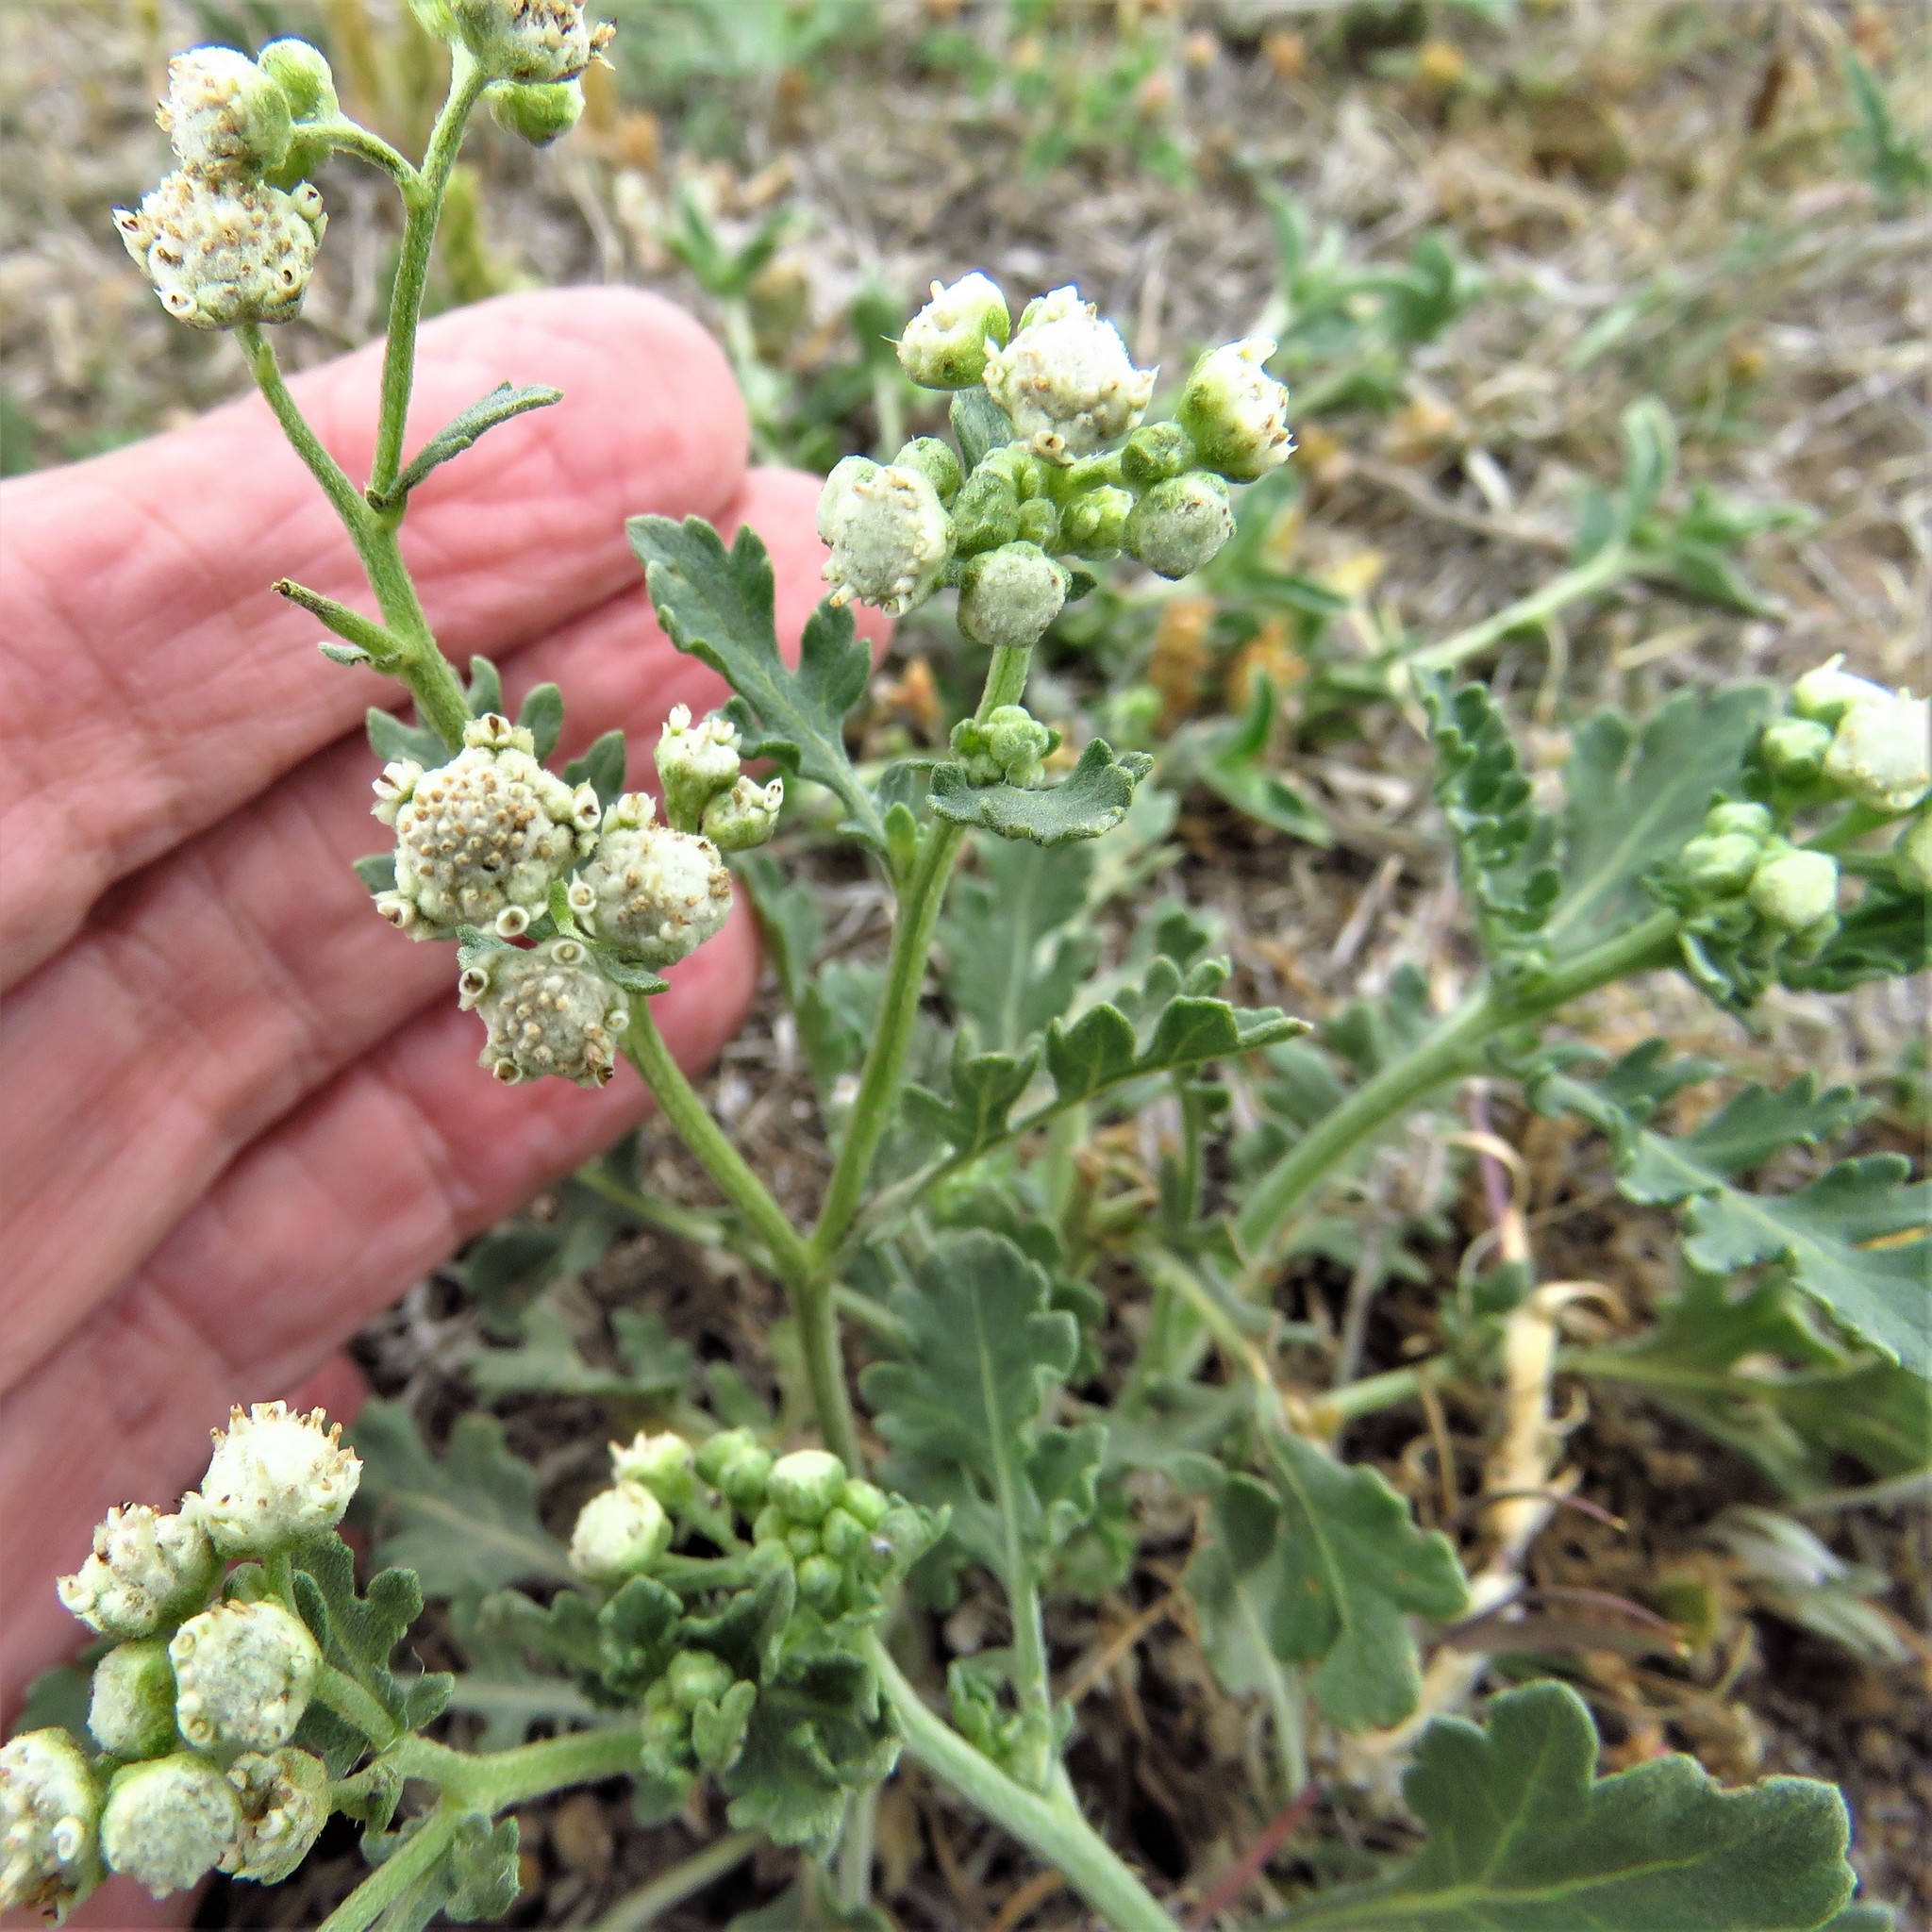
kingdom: Plantae
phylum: Tracheophyta
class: Magnoliopsida
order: Asterales
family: Asteraceae
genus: Parthenium
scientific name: Parthenium confertum
